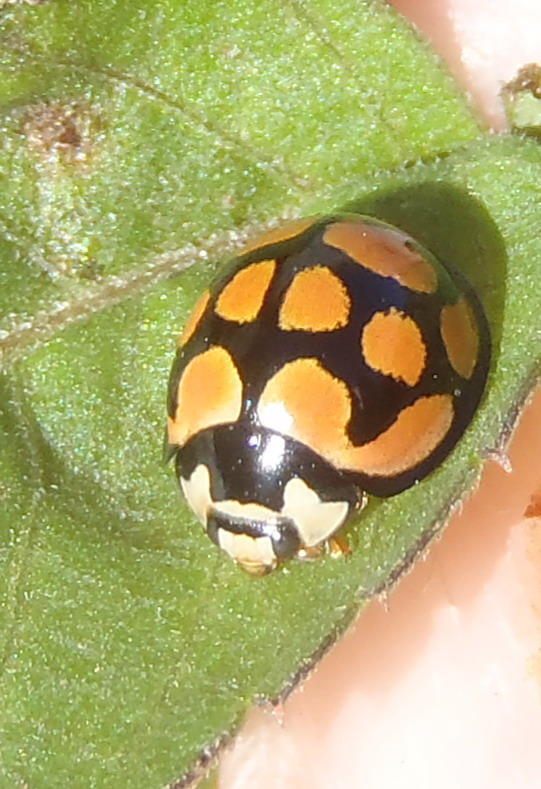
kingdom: Animalia
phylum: Arthropoda
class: Insecta
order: Coleoptera
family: Coccinellidae
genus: Cheilomenes
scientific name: Cheilomenes lunata
